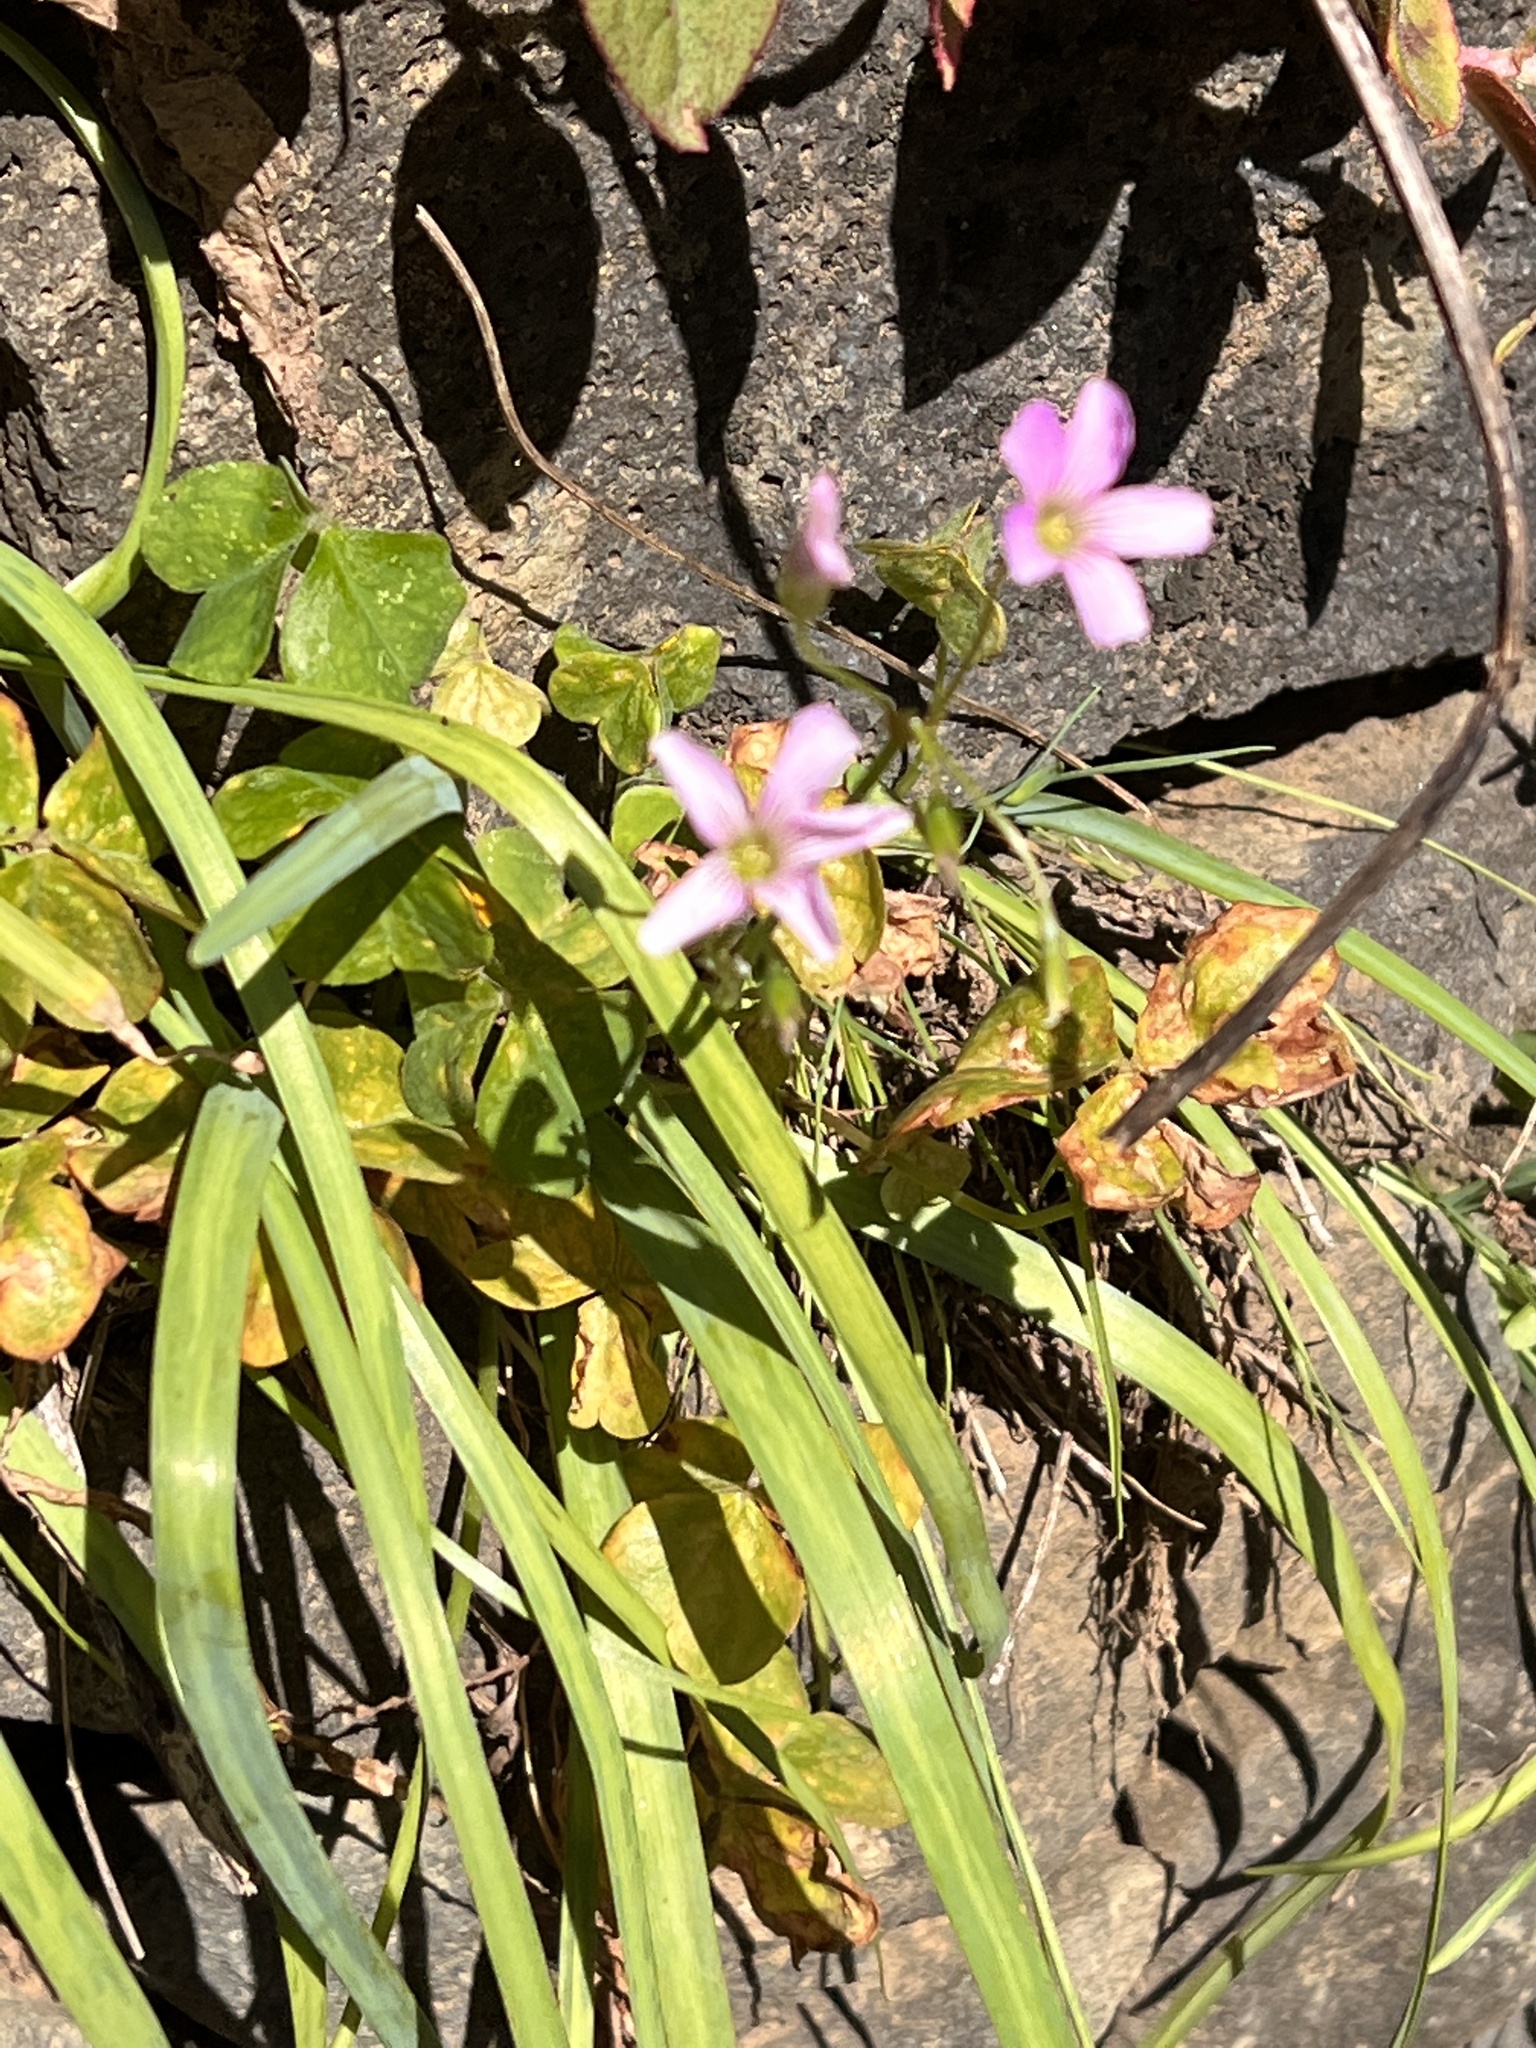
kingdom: Plantae
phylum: Tracheophyta
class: Magnoliopsida
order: Oxalidales
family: Oxalidaceae
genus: Oxalis
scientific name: Oxalis debilis
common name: Large-flowered pink-sorrel
